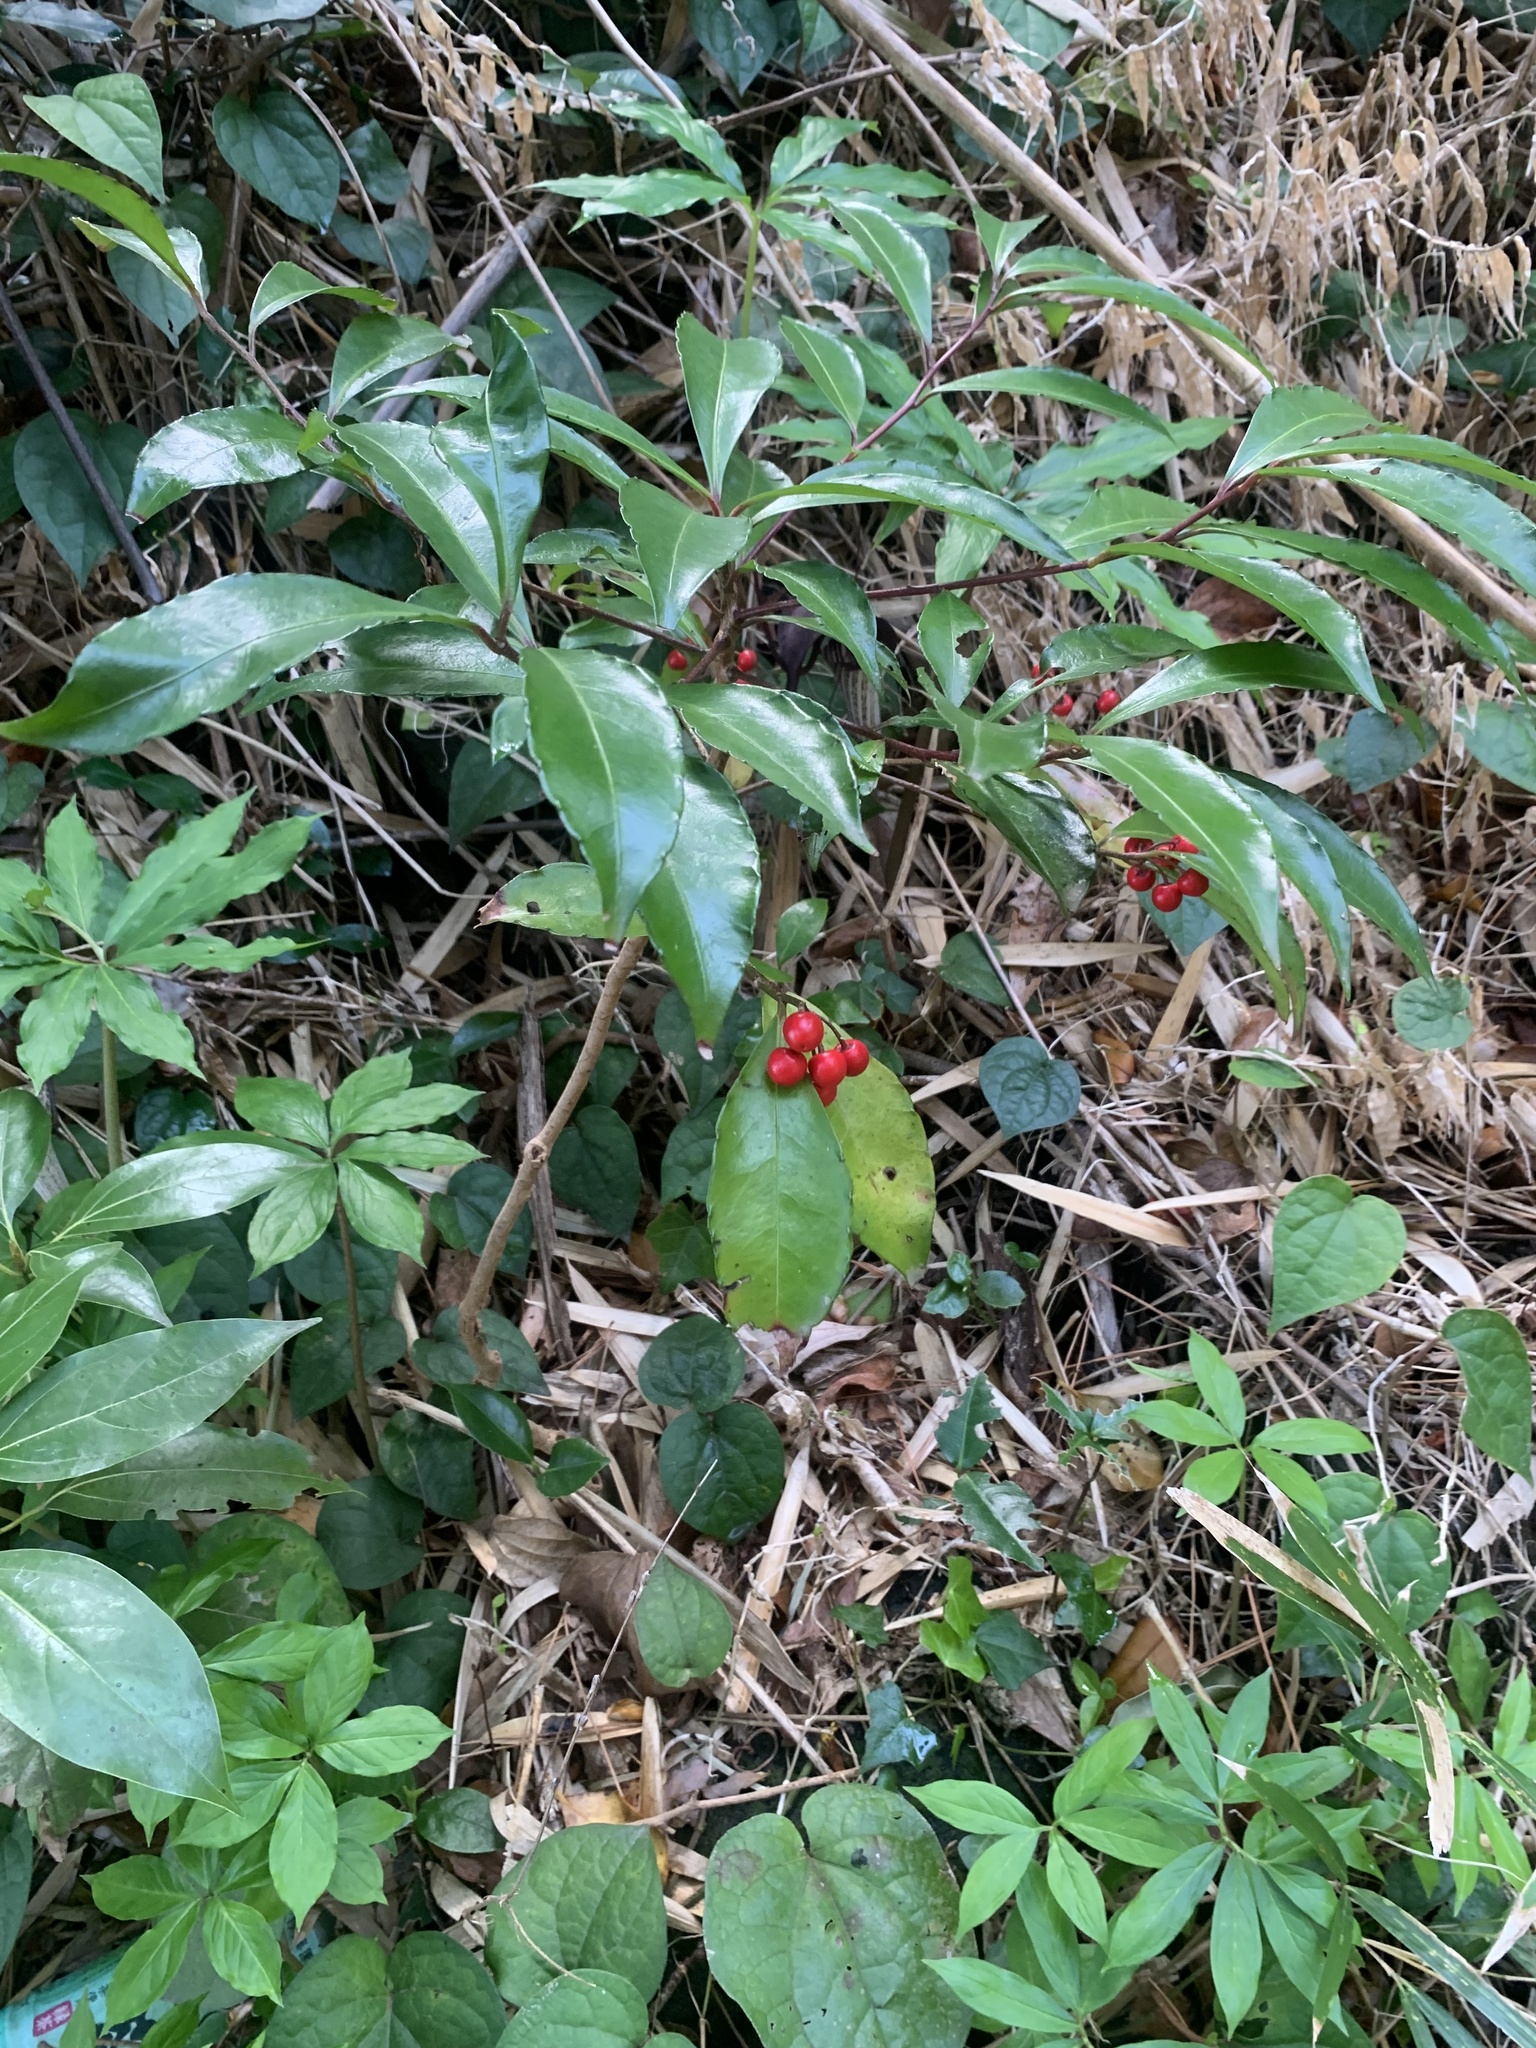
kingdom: Plantae
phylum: Tracheophyta
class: Magnoliopsida
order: Ericales
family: Primulaceae
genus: Ardisia
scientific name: Ardisia crenata
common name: Hen's eyes
